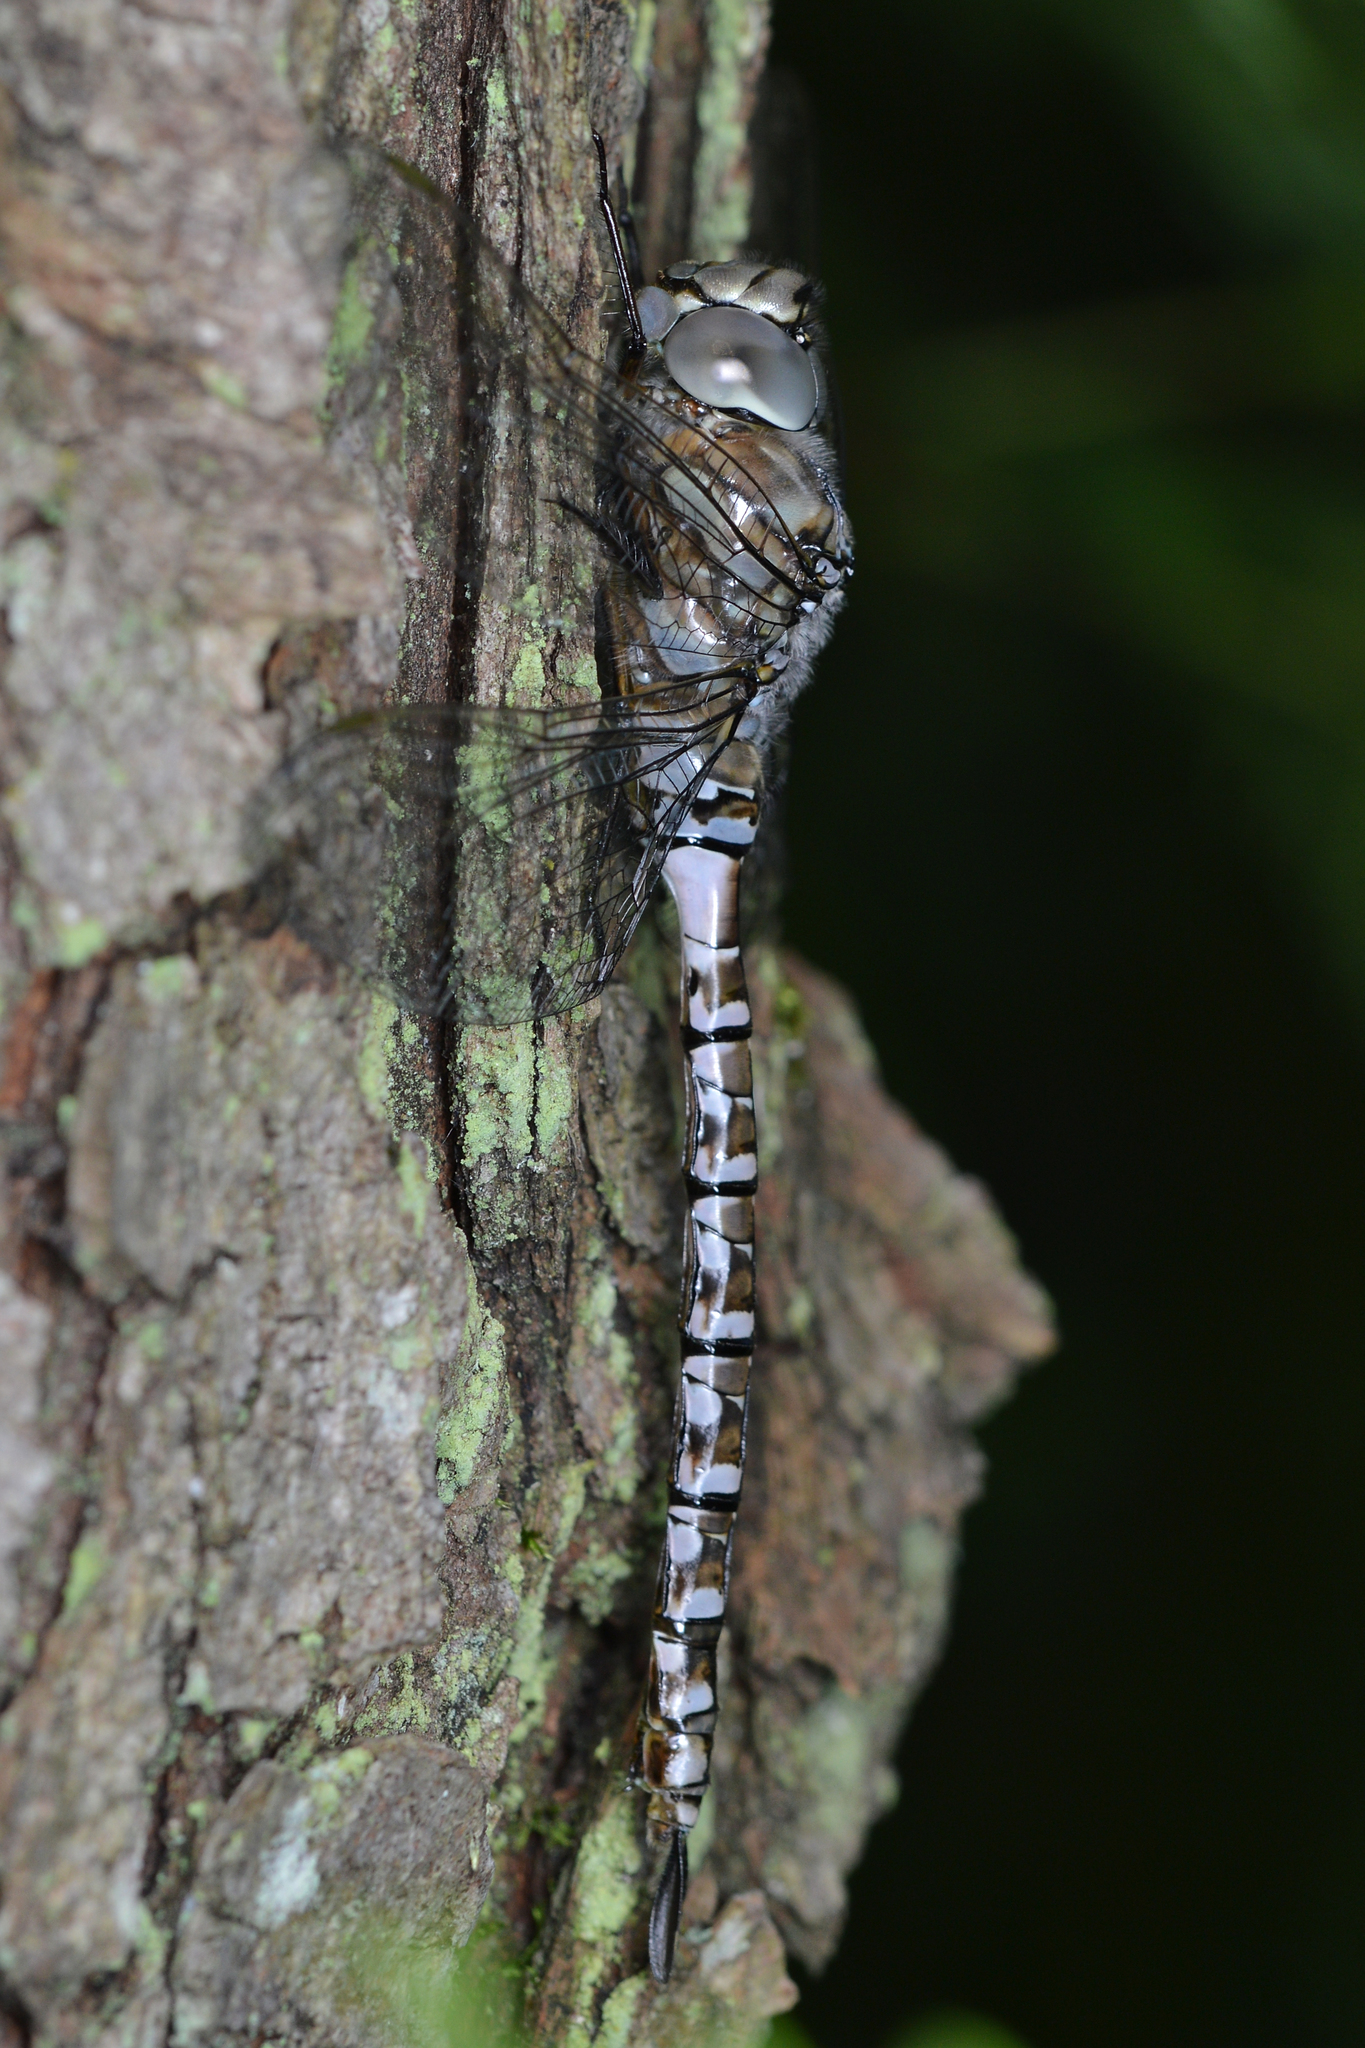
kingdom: Animalia
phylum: Arthropoda
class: Insecta
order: Odonata
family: Aeshnidae
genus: Aeshna
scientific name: Aeshna eremita
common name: Lake darner
